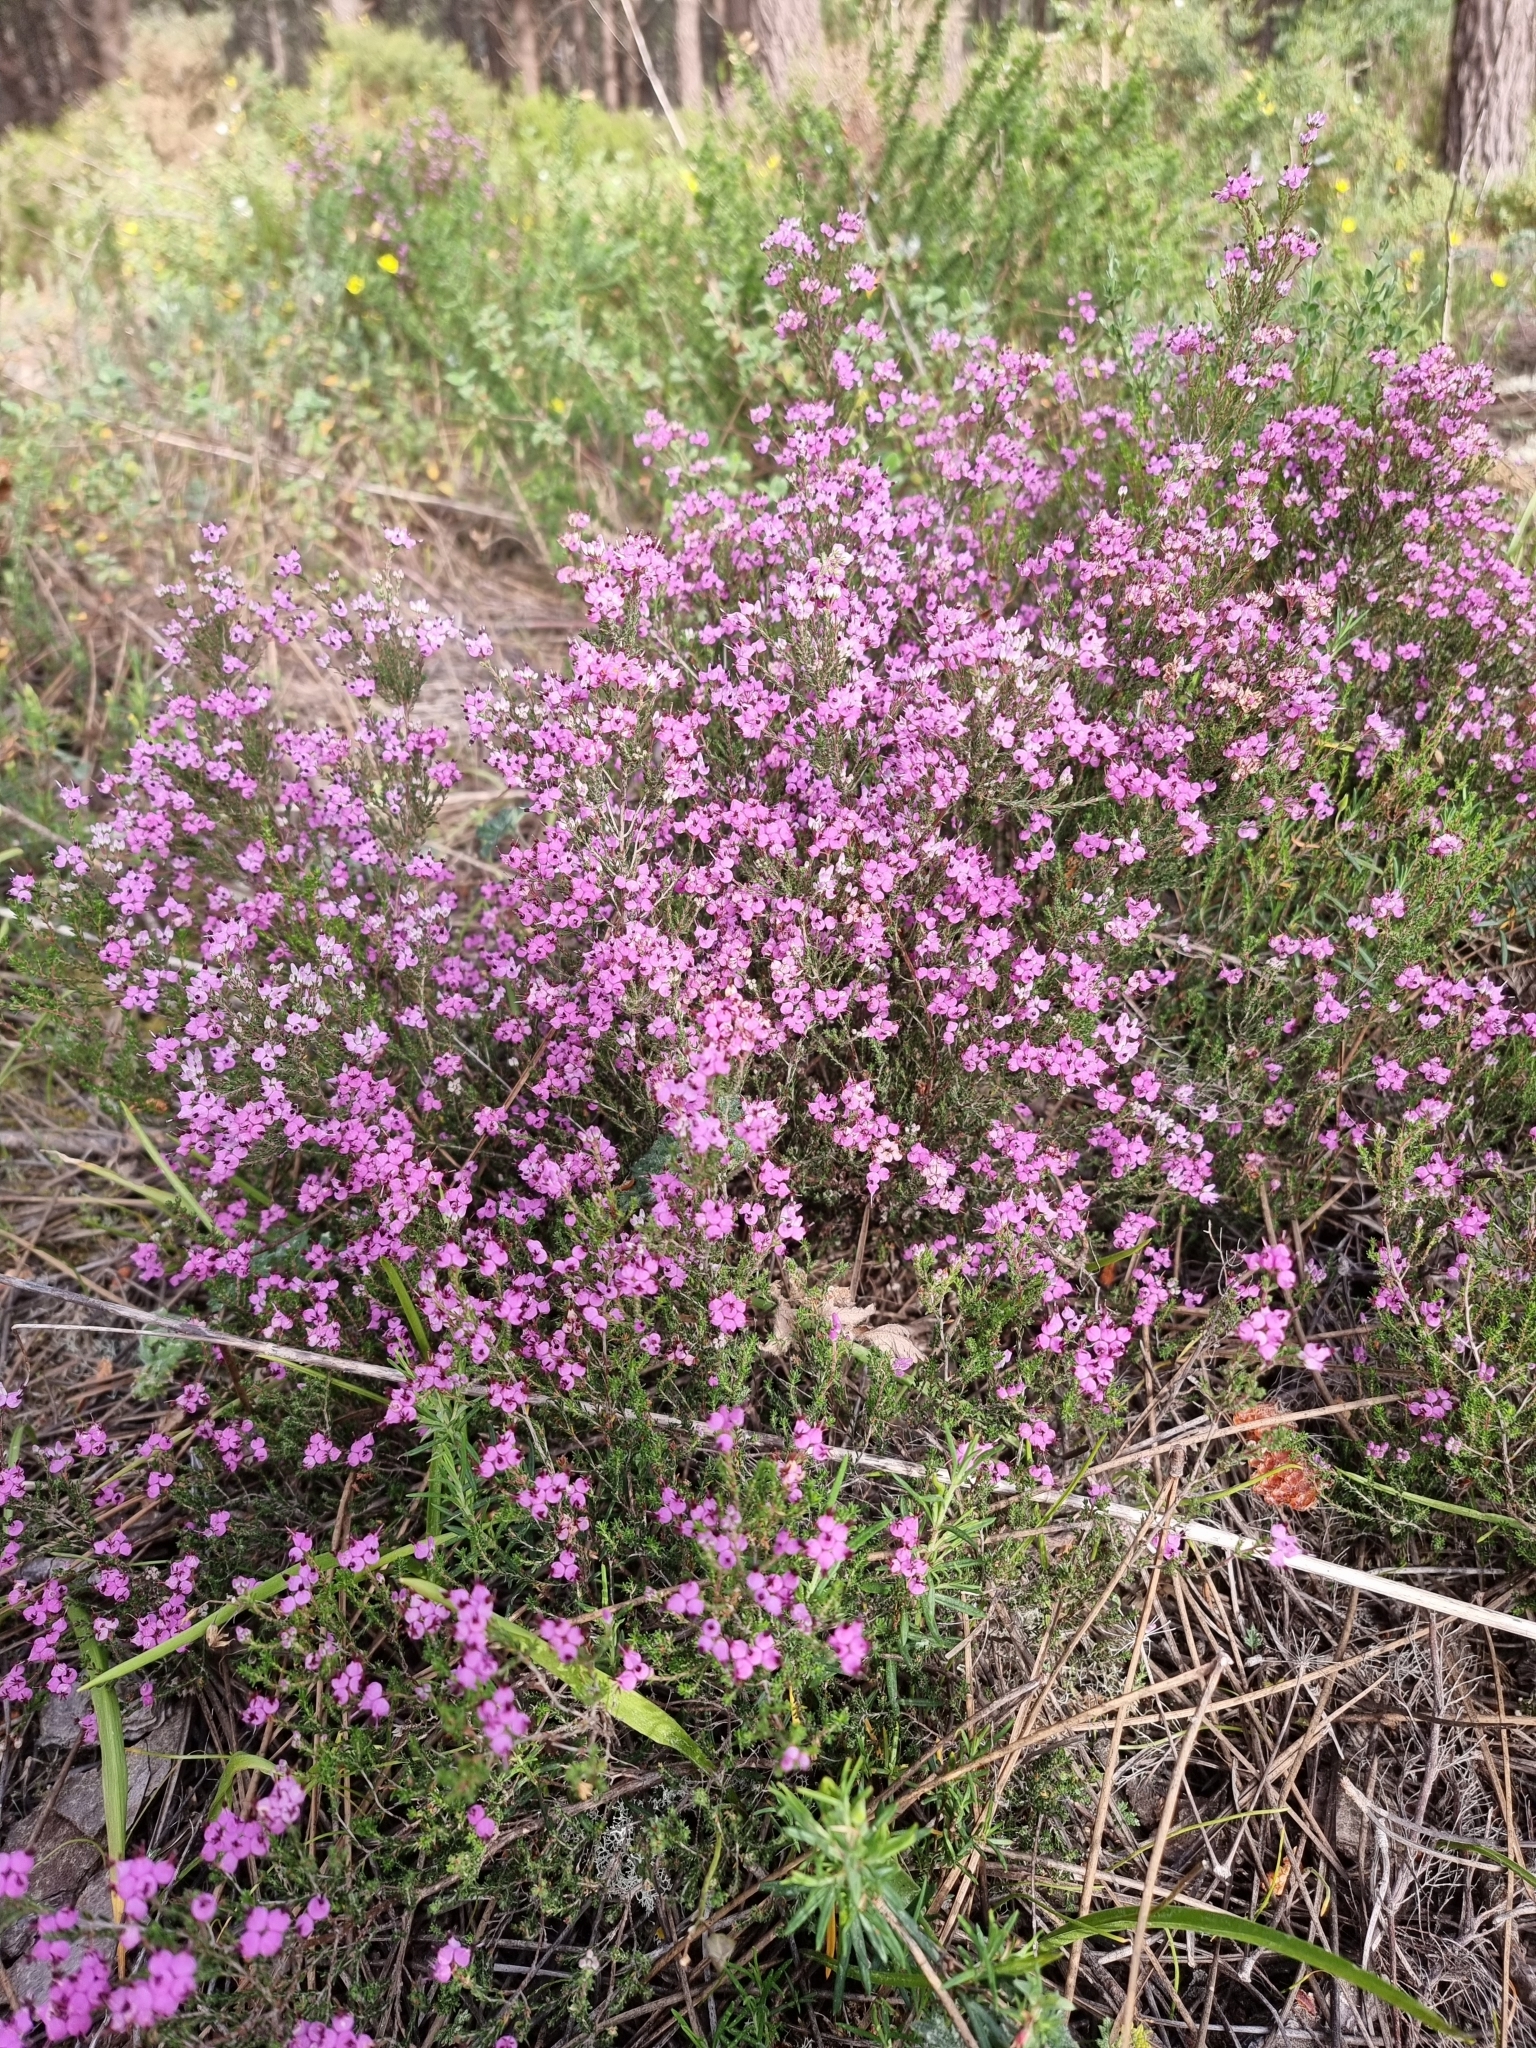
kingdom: Plantae
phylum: Tracheophyta
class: Magnoliopsida
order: Ericales
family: Ericaceae
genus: Erica
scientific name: Erica umbellata
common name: Dwarf spanish heath
